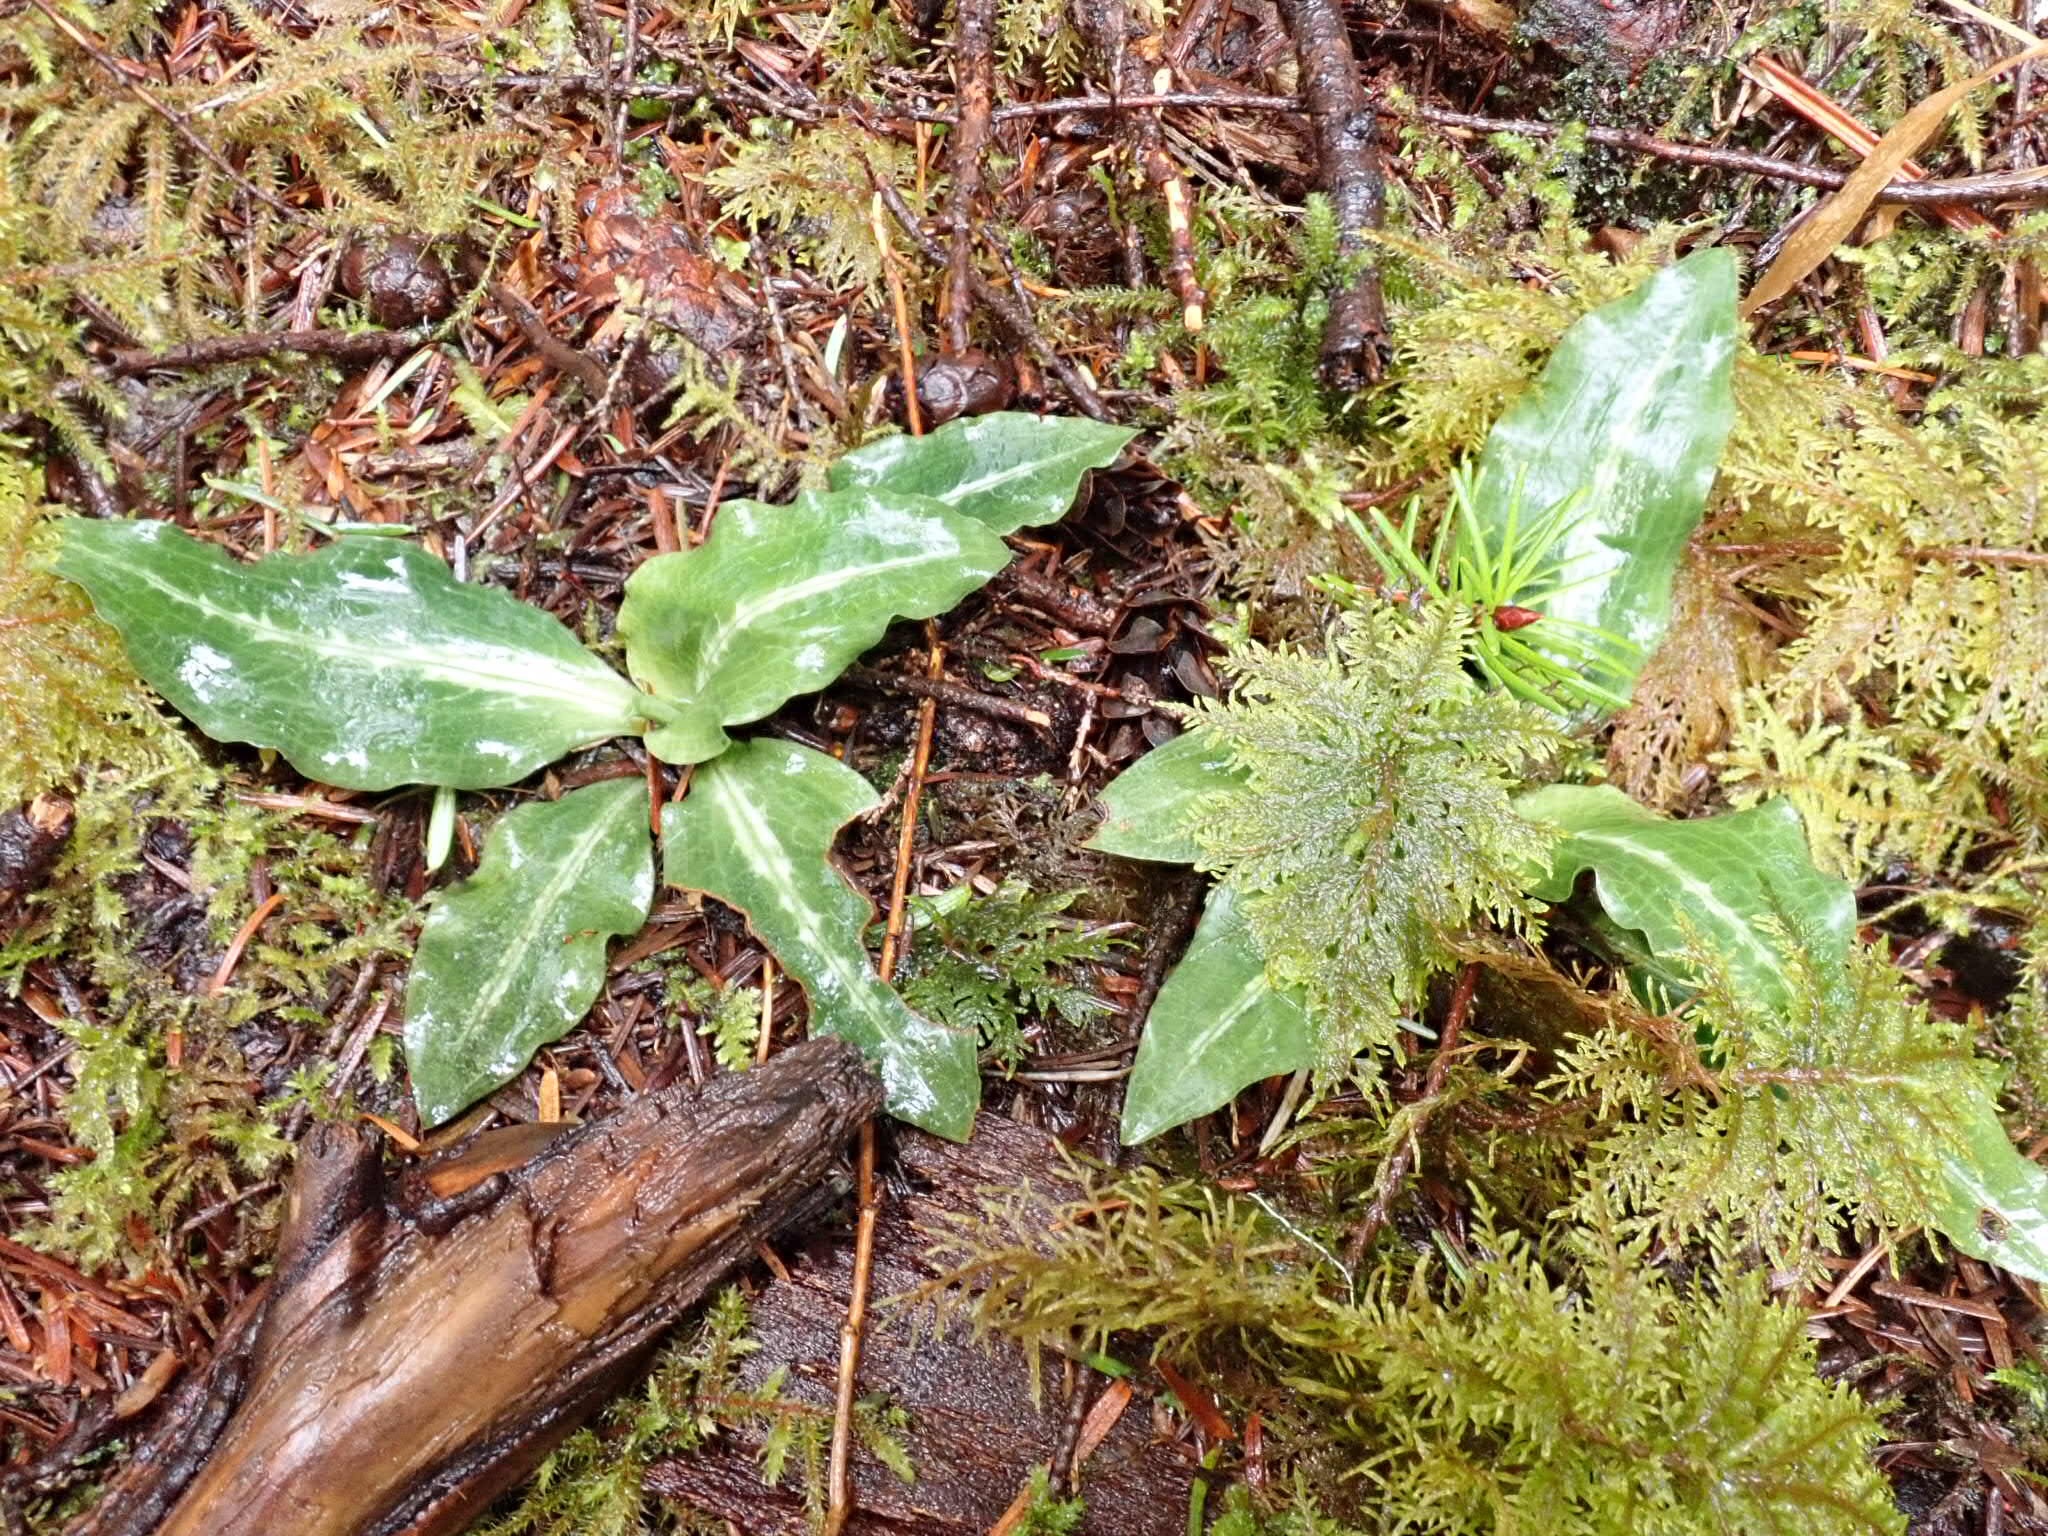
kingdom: Plantae
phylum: Tracheophyta
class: Liliopsida
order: Asparagales
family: Orchidaceae
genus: Goodyera
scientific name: Goodyera oblongifolia
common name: Giant rattlesnake-plantain
